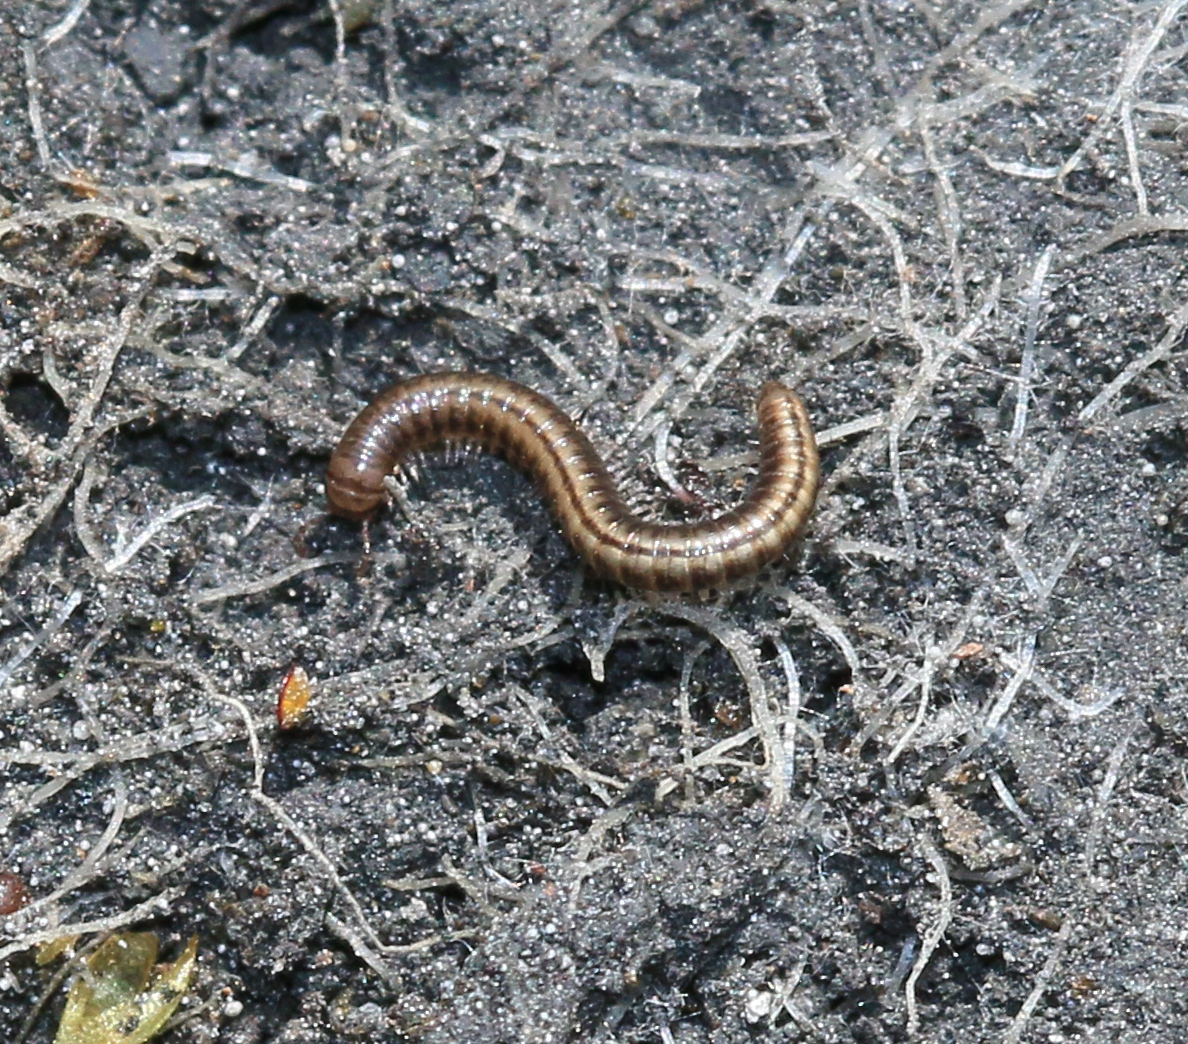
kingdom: Animalia
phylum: Arthropoda
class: Diplopoda
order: Julida
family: Julidae
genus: Brachyiulus
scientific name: Brachyiulus pusillus
